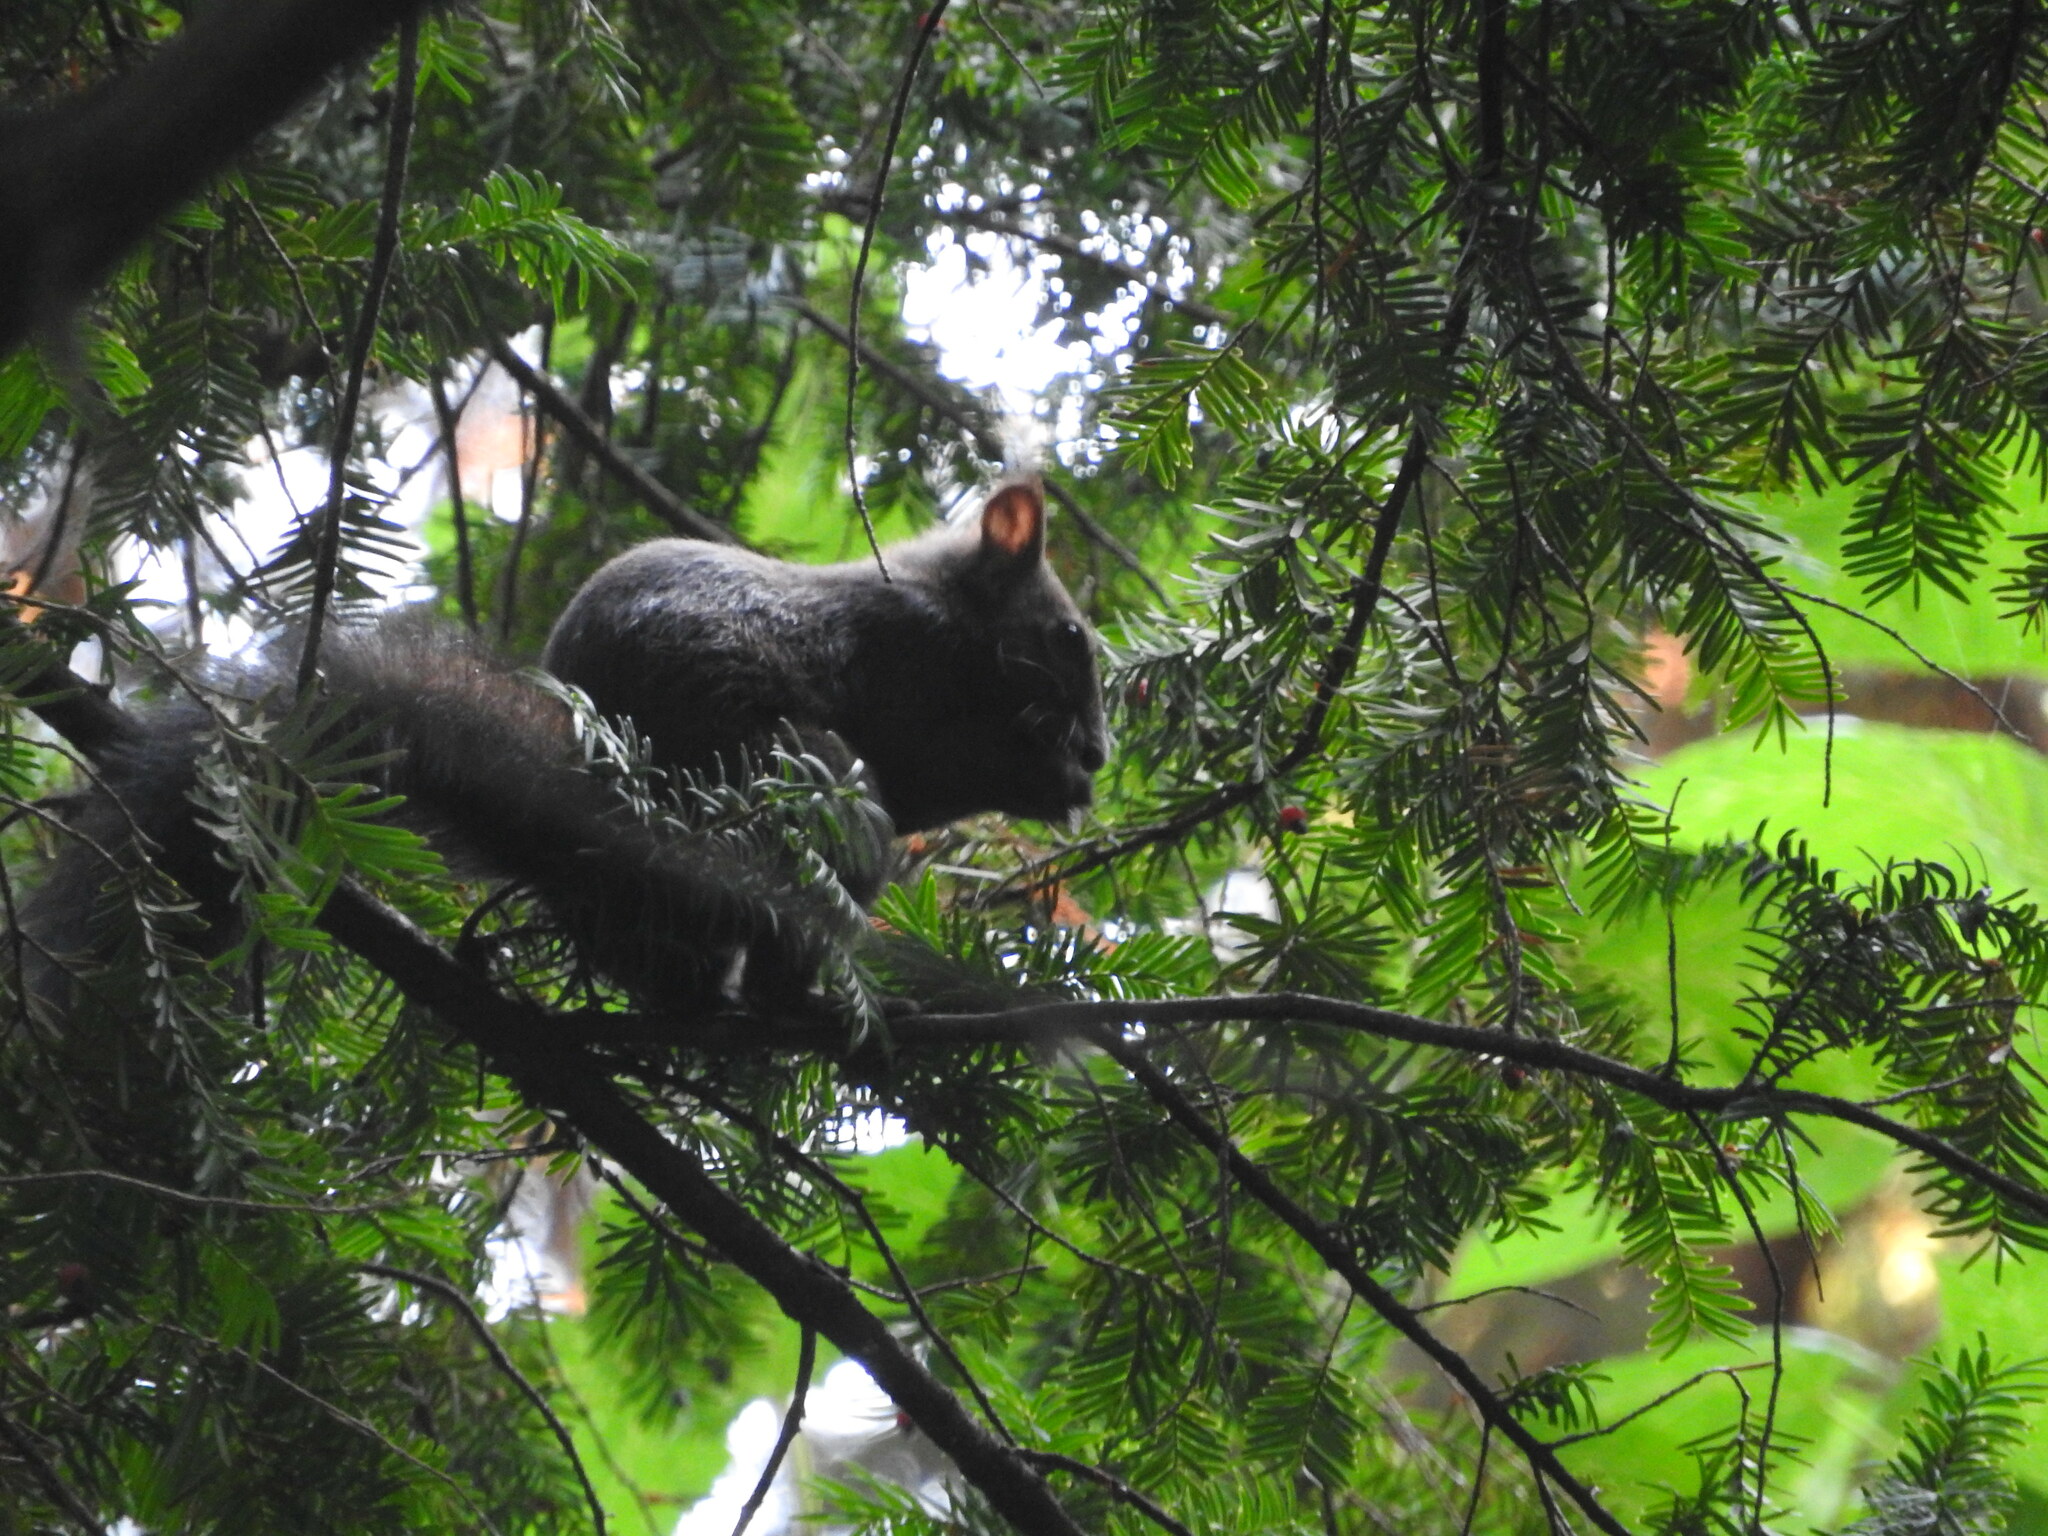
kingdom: Animalia
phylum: Chordata
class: Mammalia
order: Rodentia
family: Sciuridae
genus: Sciurus
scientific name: Sciurus vulgaris
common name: Eurasian red squirrel
